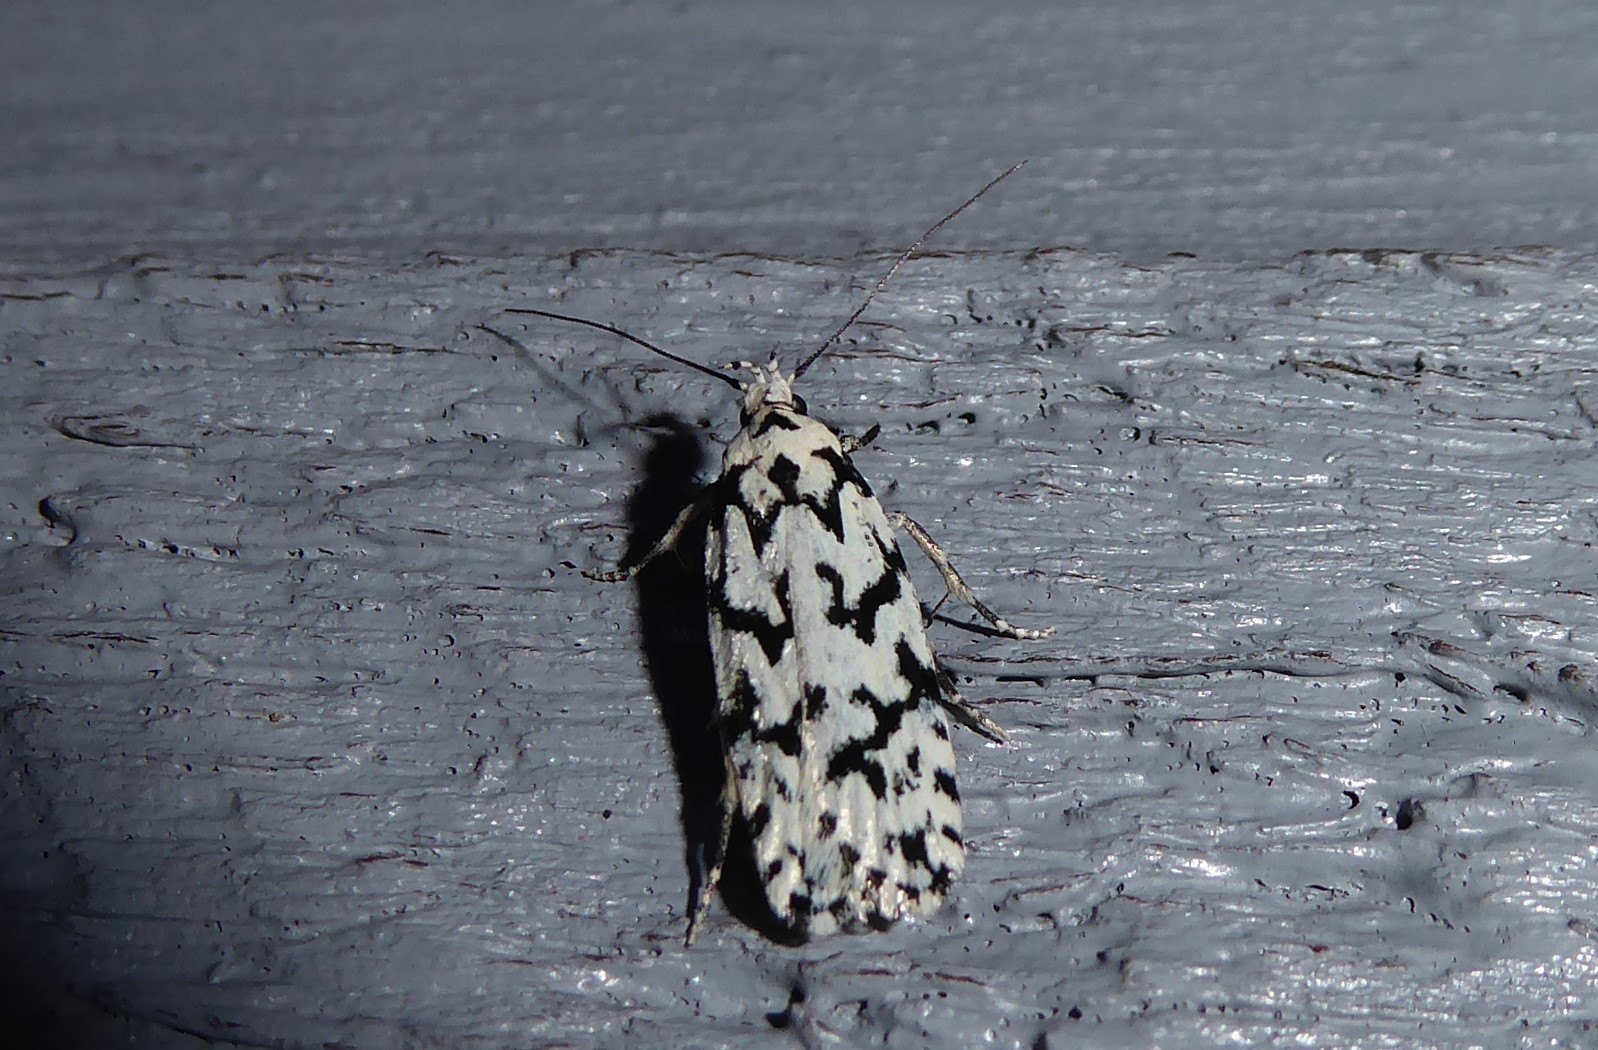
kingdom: Animalia
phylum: Arthropoda
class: Insecta
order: Lepidoptera
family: Oecophoridae
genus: Izatha
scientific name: Izatha katadiktya
